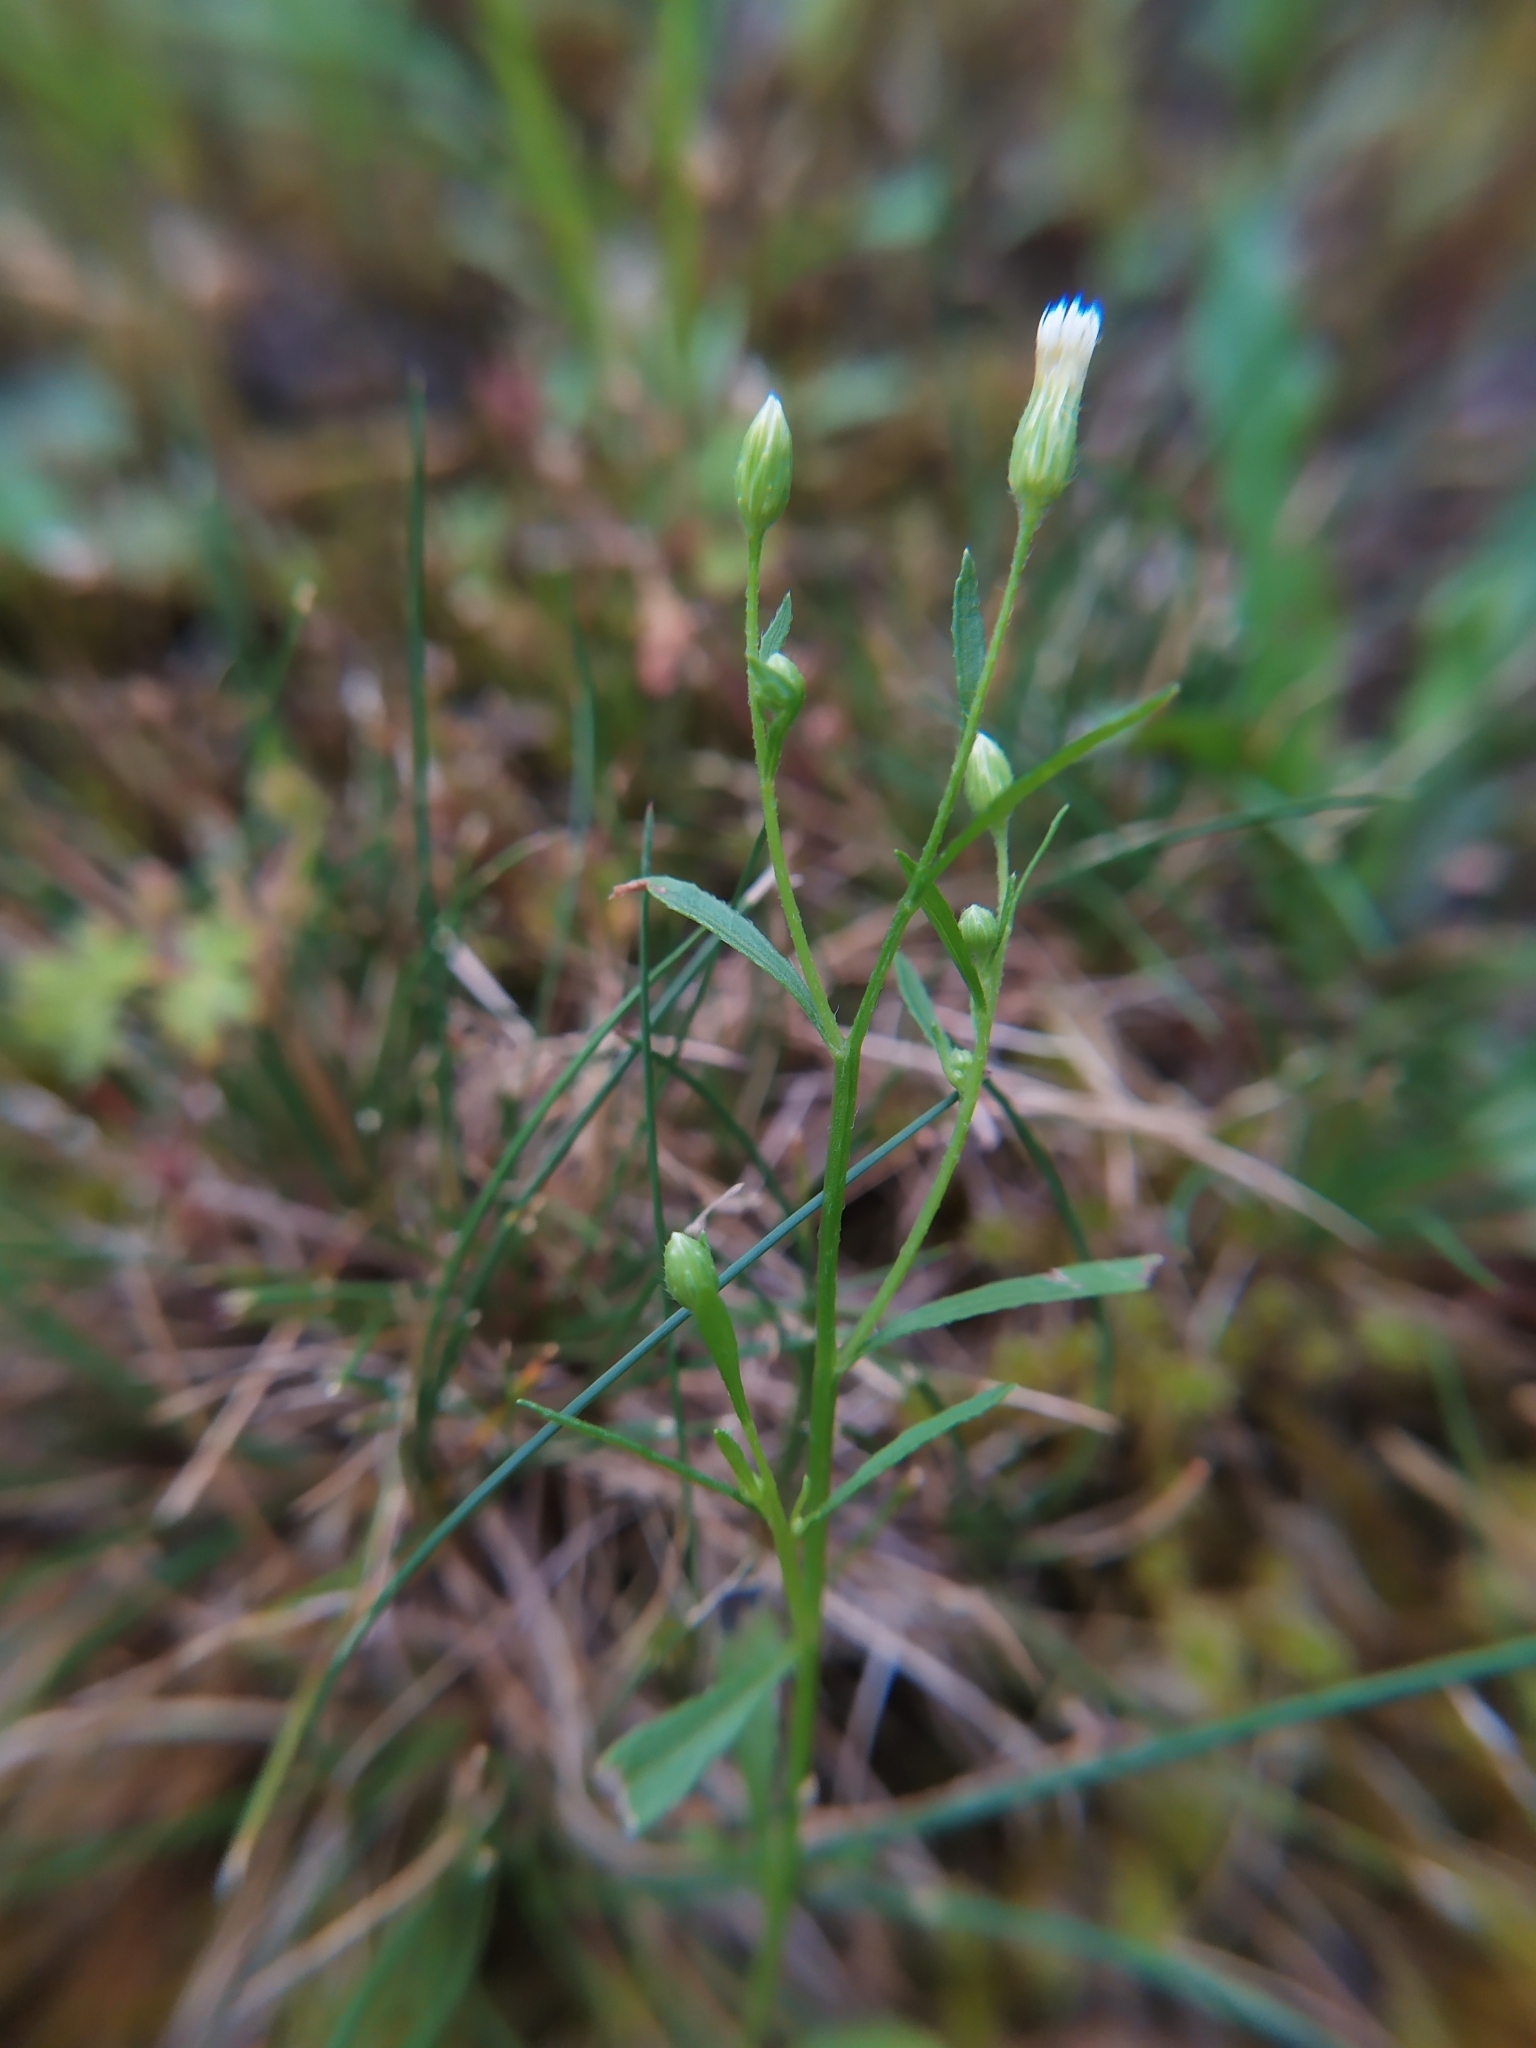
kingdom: Plantae
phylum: Tracheophyta
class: Magnoliopsida
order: Asterales
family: Asteraceae
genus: Erigeron
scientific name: Erigeron canadensis
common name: Canadian fleabane
